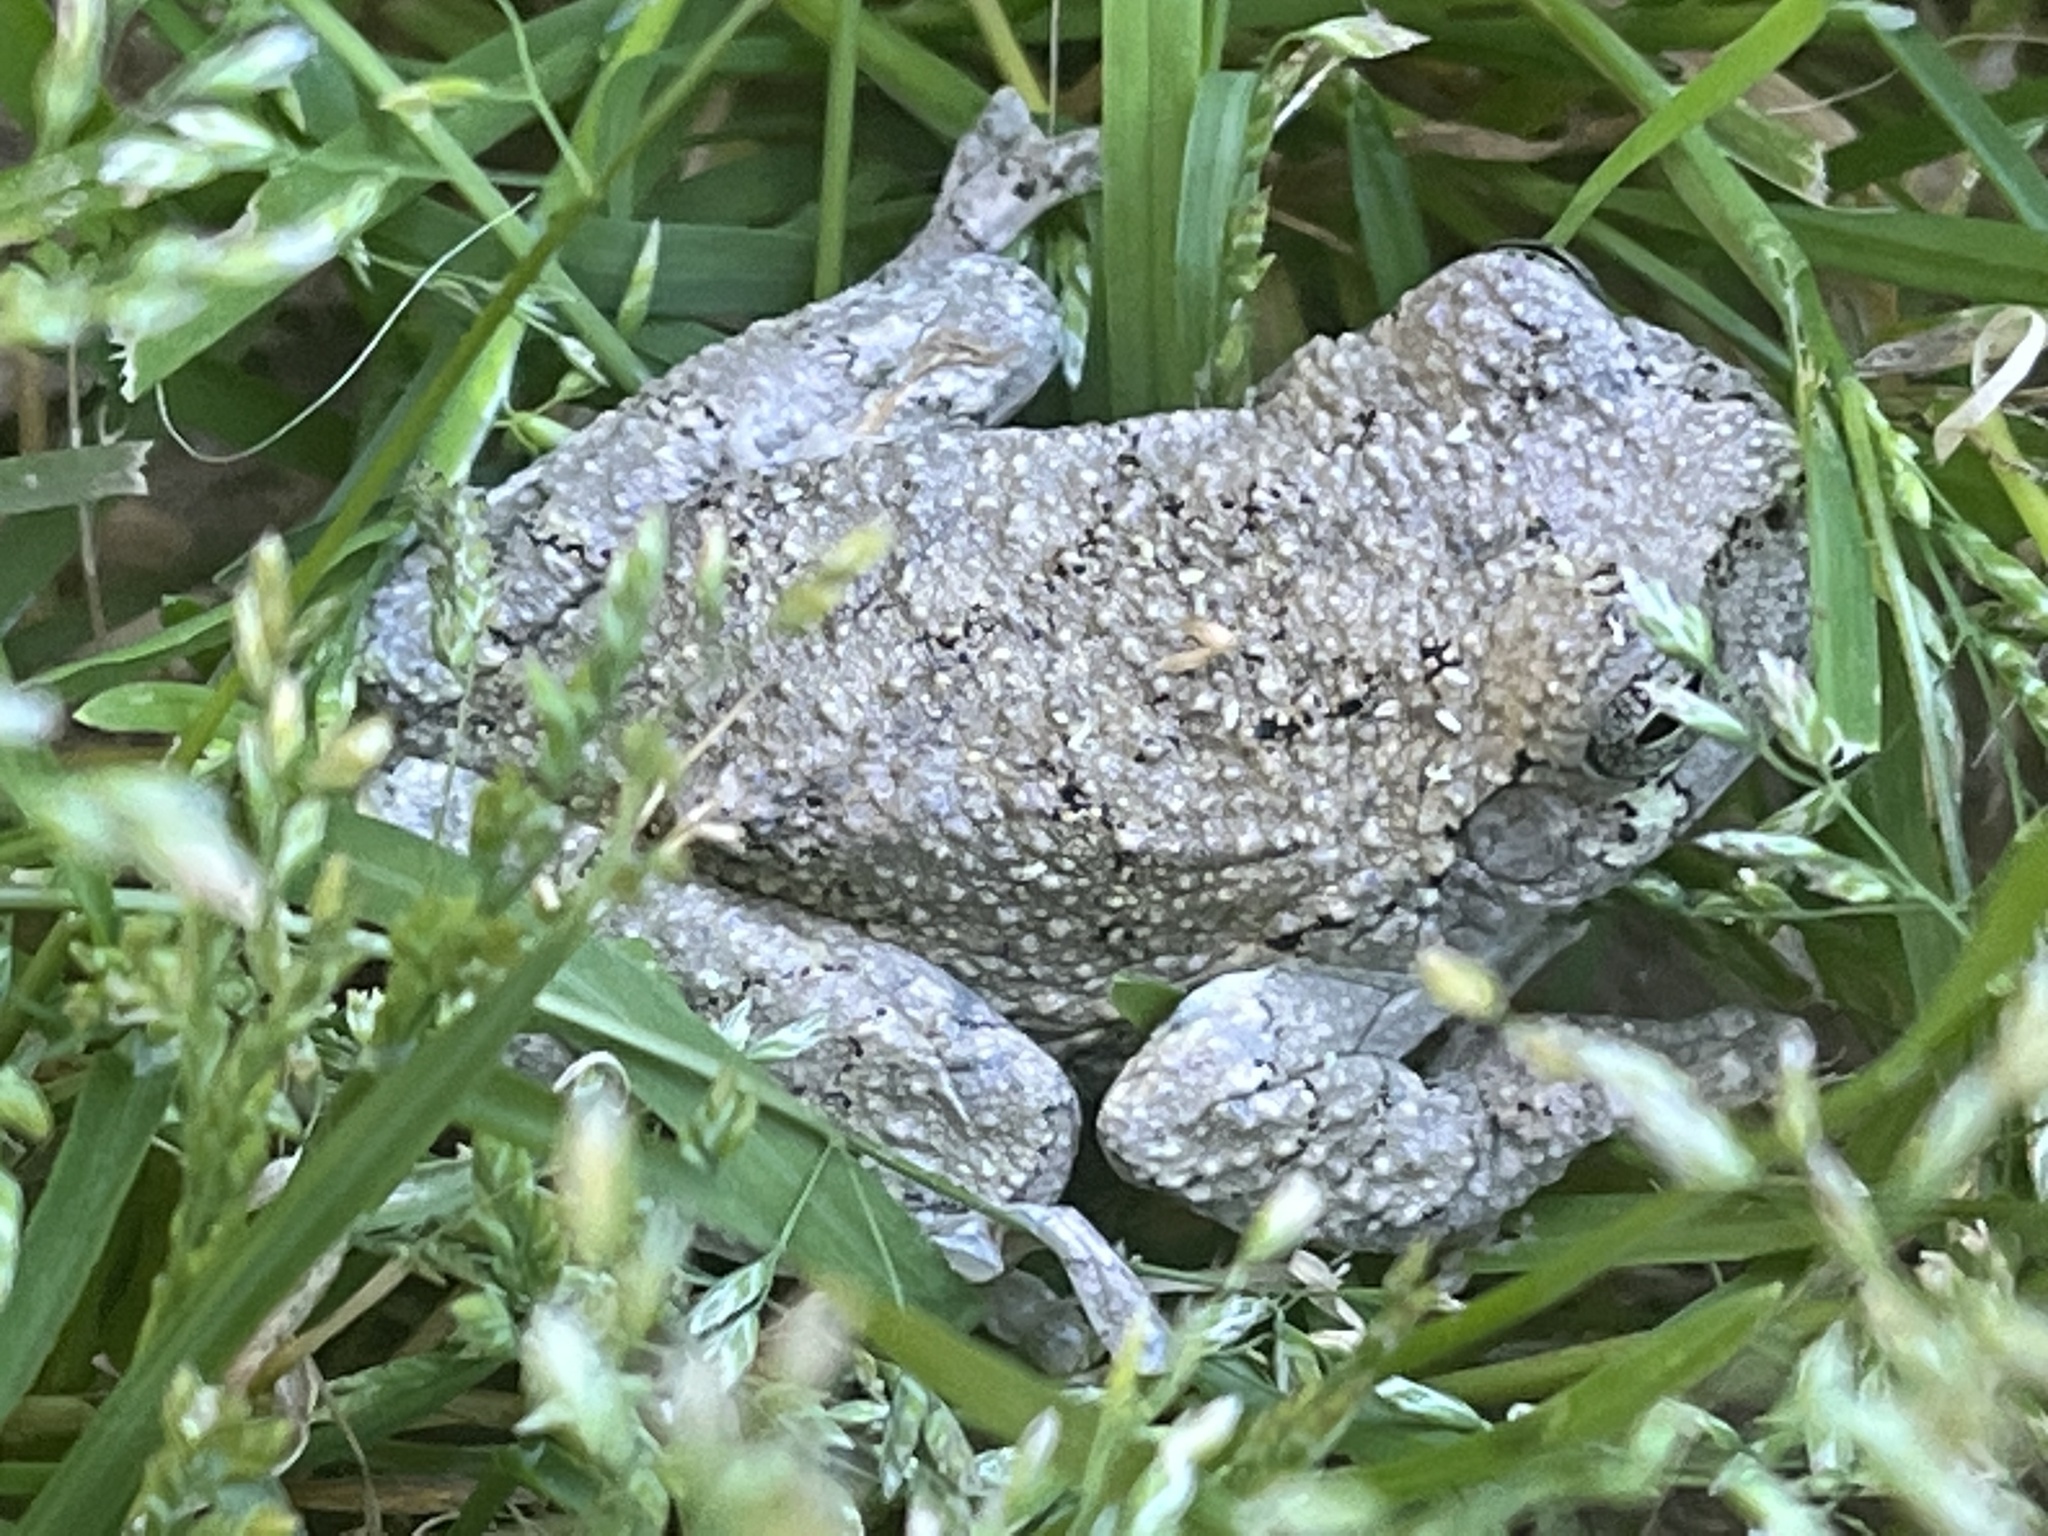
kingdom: Animalia
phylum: Chordata
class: Amphibia
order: Anura
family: Hylidae
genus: Dryophytes
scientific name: Dryophytes chrysoscelis
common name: Cope's gray treefrog
